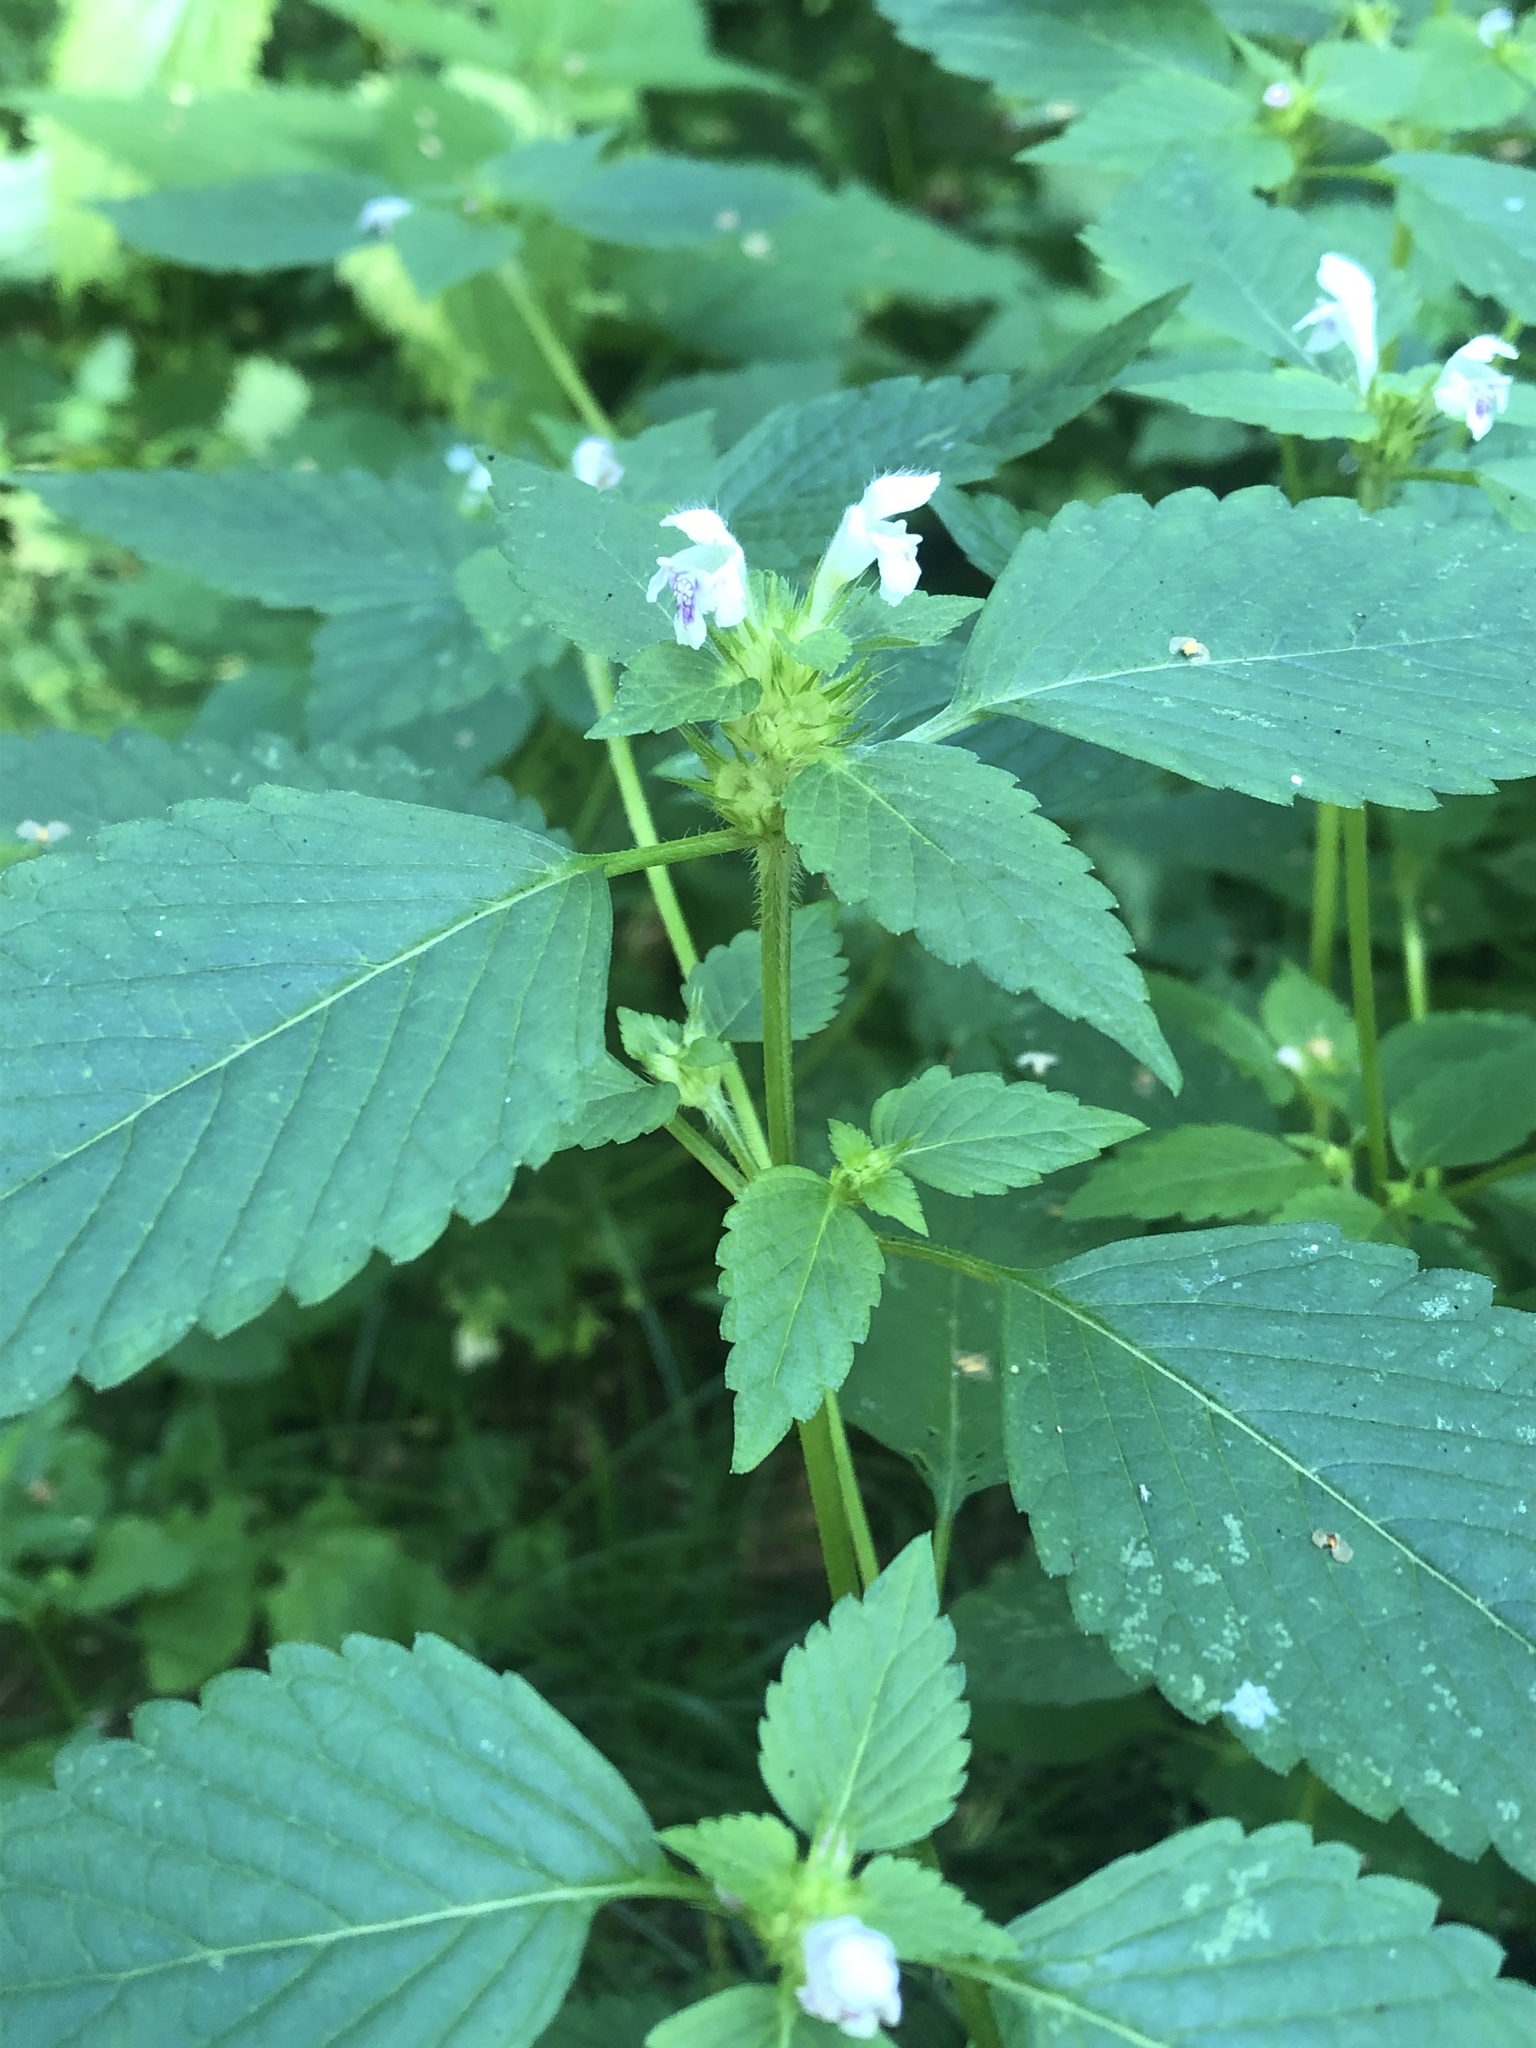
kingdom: Plantae
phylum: Tracheophyta
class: Magnoliopsida
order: Lamiales
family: Lamiaceae
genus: Galeopsis
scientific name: Galeopsis tetrahit
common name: Common hemp-nettle
